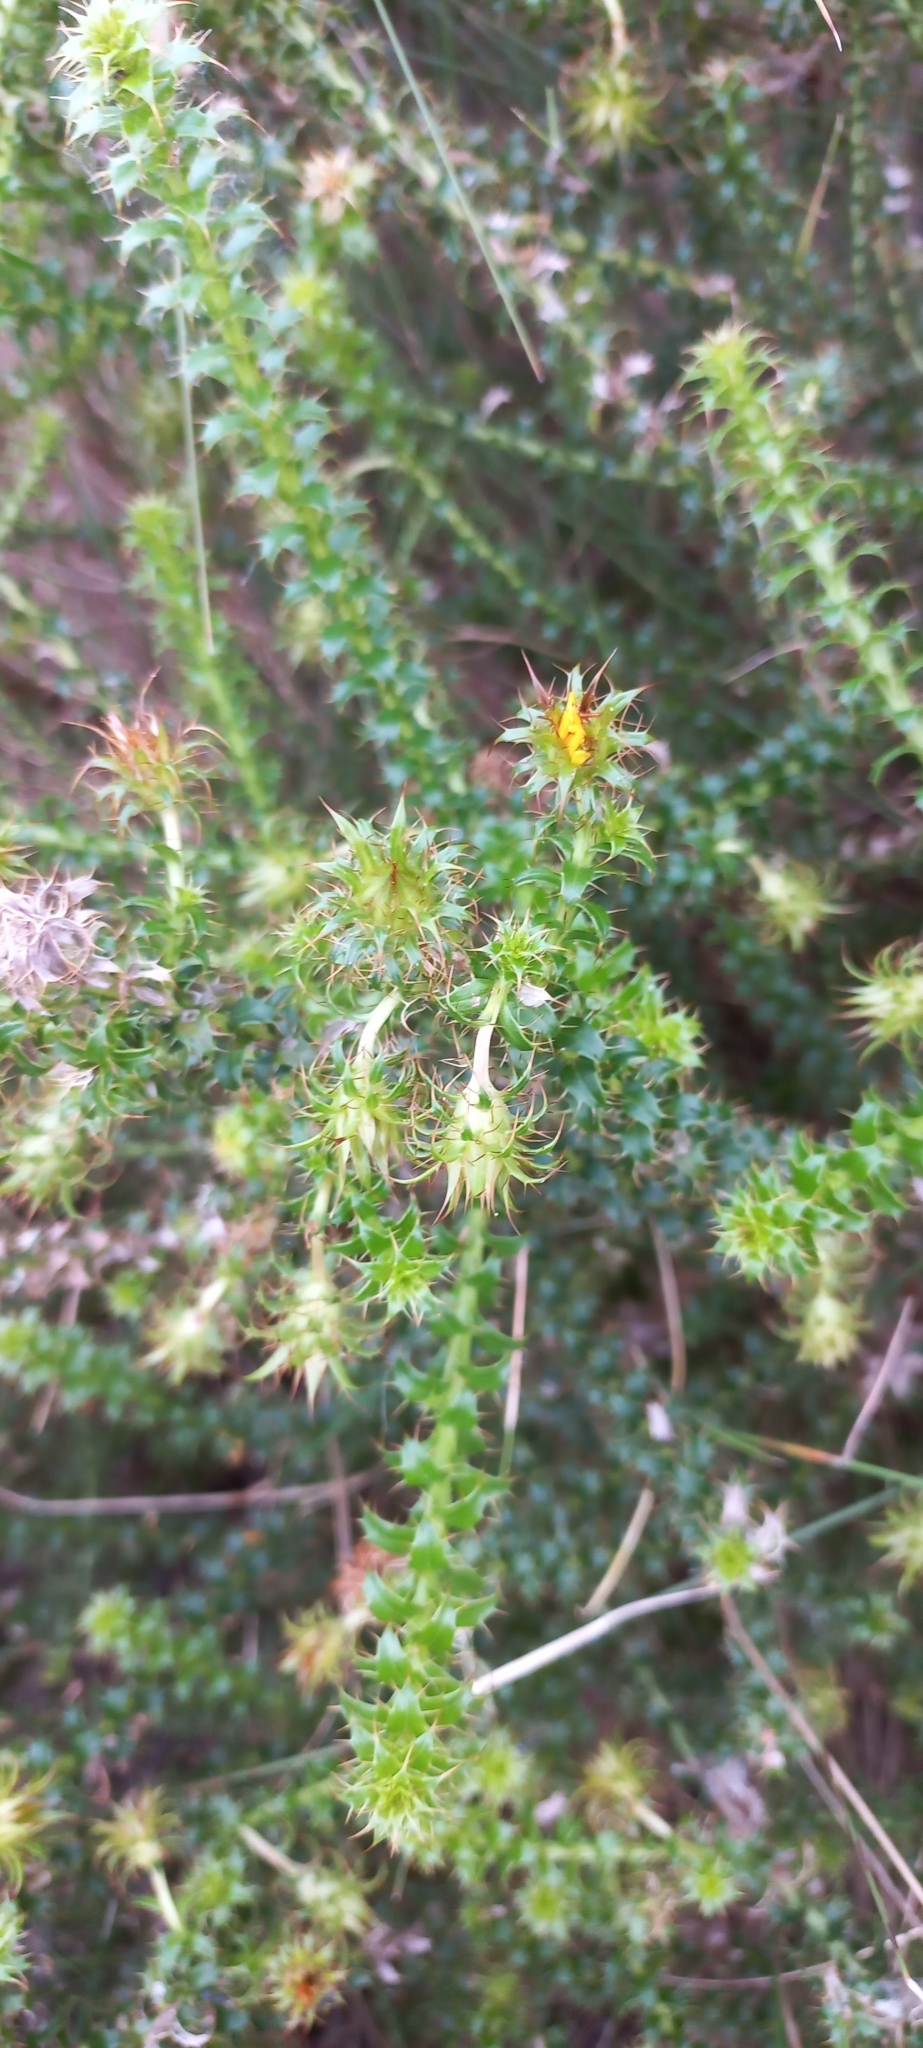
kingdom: Plantae
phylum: Tracheophyta
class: Magnoliopsida
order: Asterales
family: Asteraceae
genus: Cullumia
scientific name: Cullumia setosa
